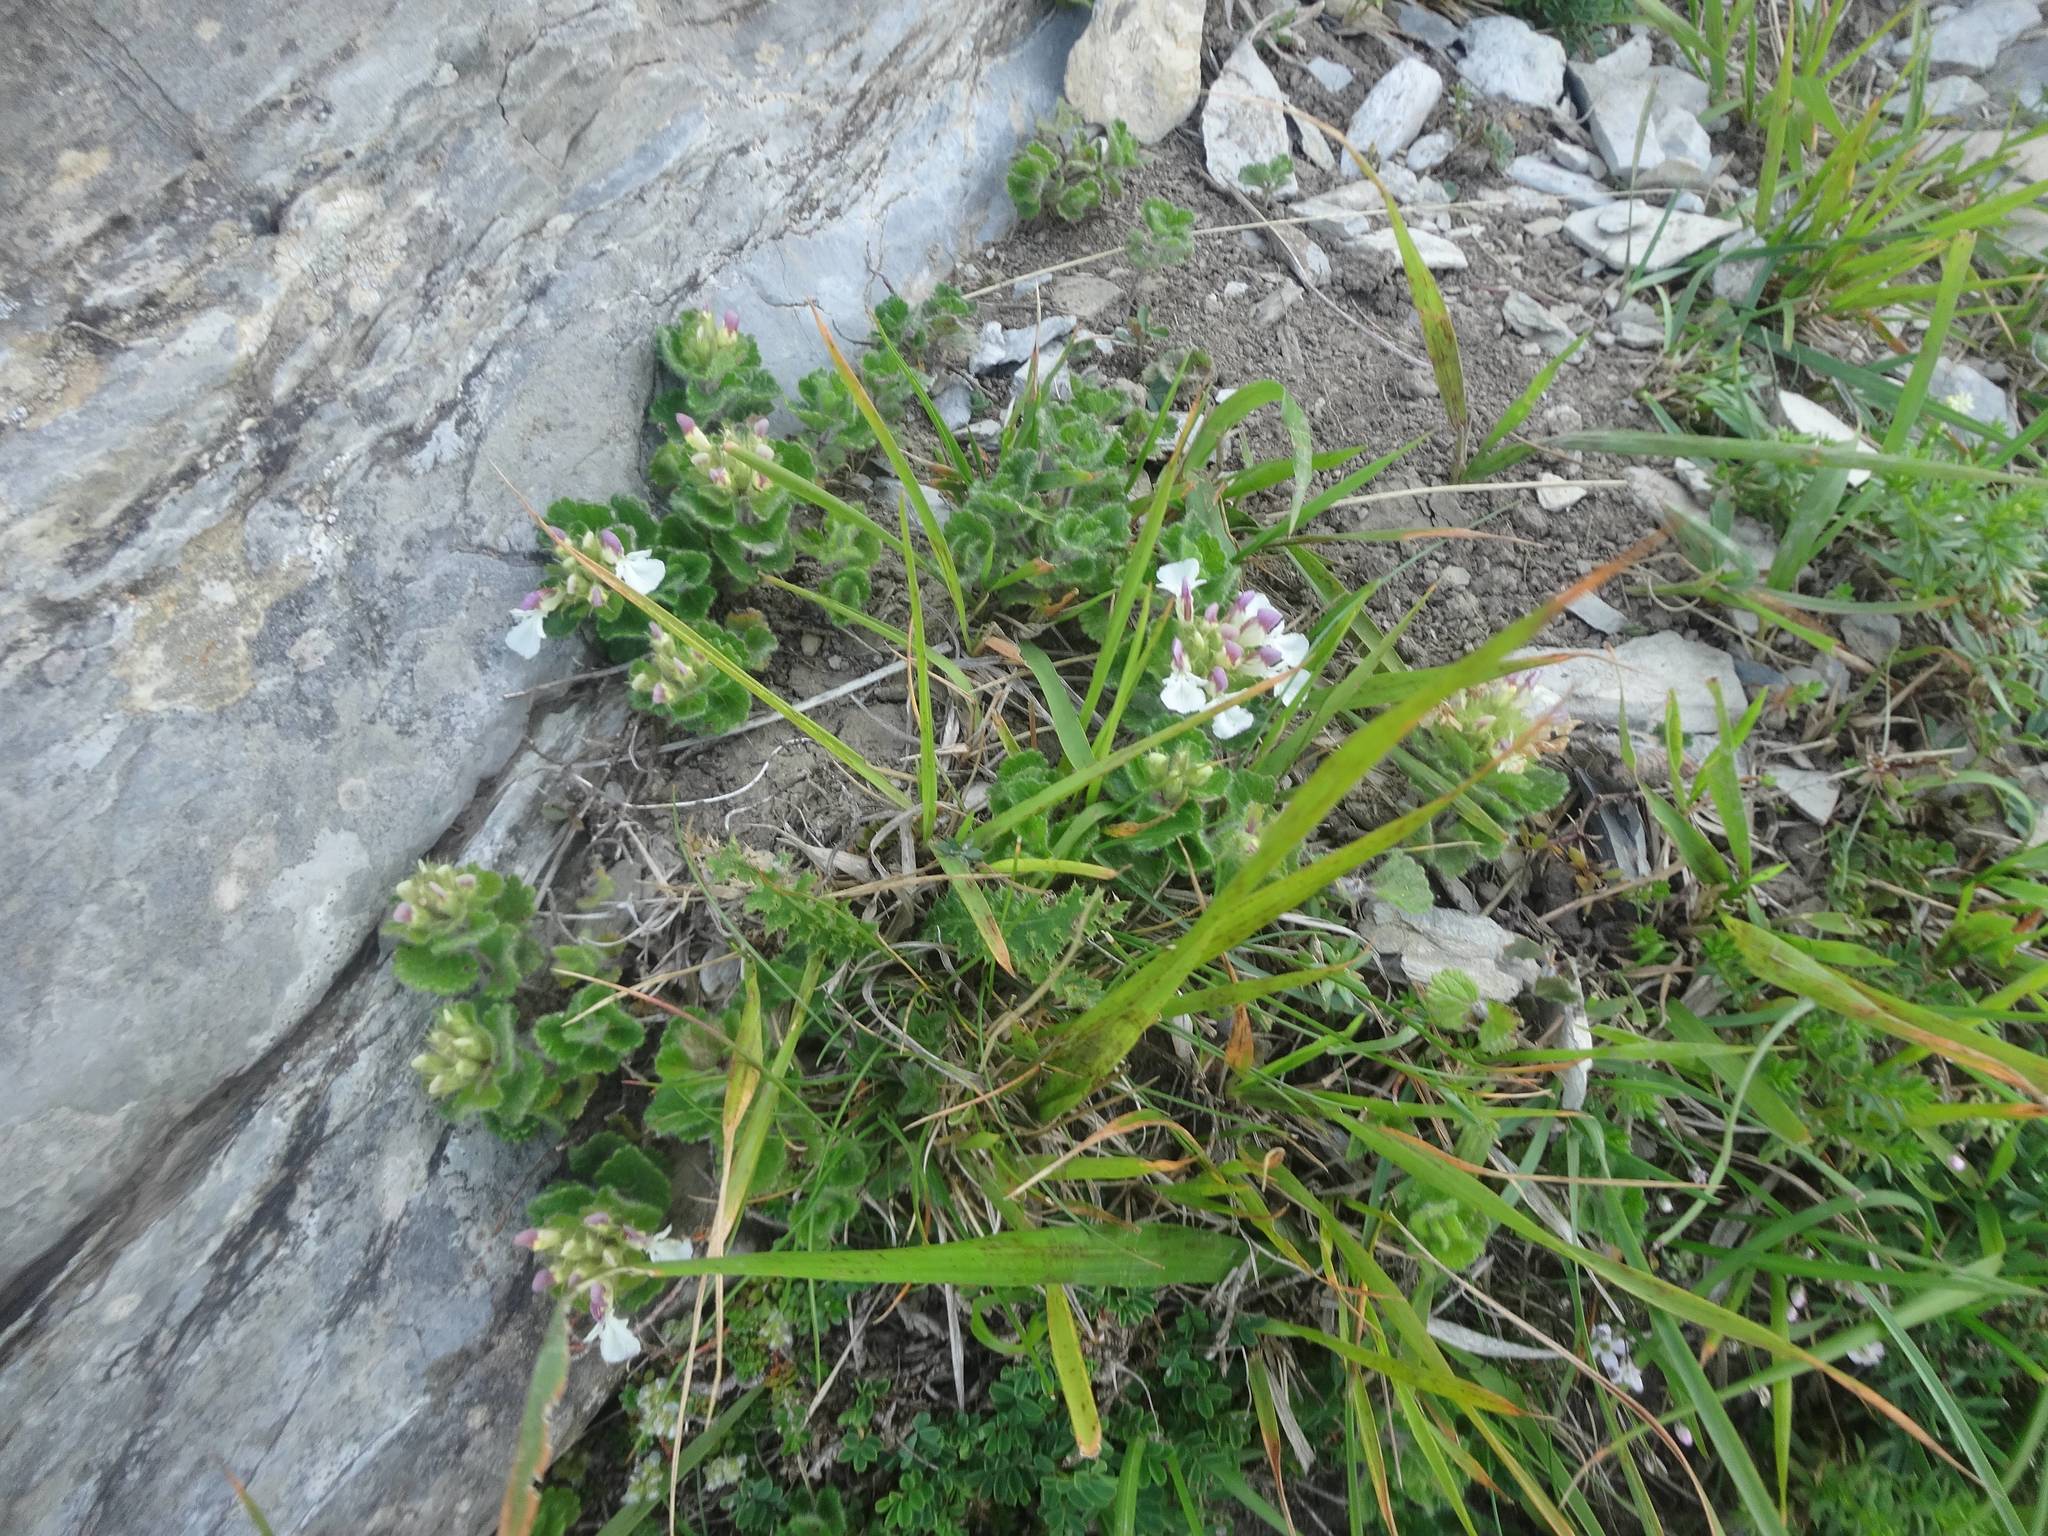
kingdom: Plantae
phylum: Tracheophyta
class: Magnoliopsida
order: Lamiales
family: Lamiaceae
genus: Teucrium
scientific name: Teucrium pyrenaicum
